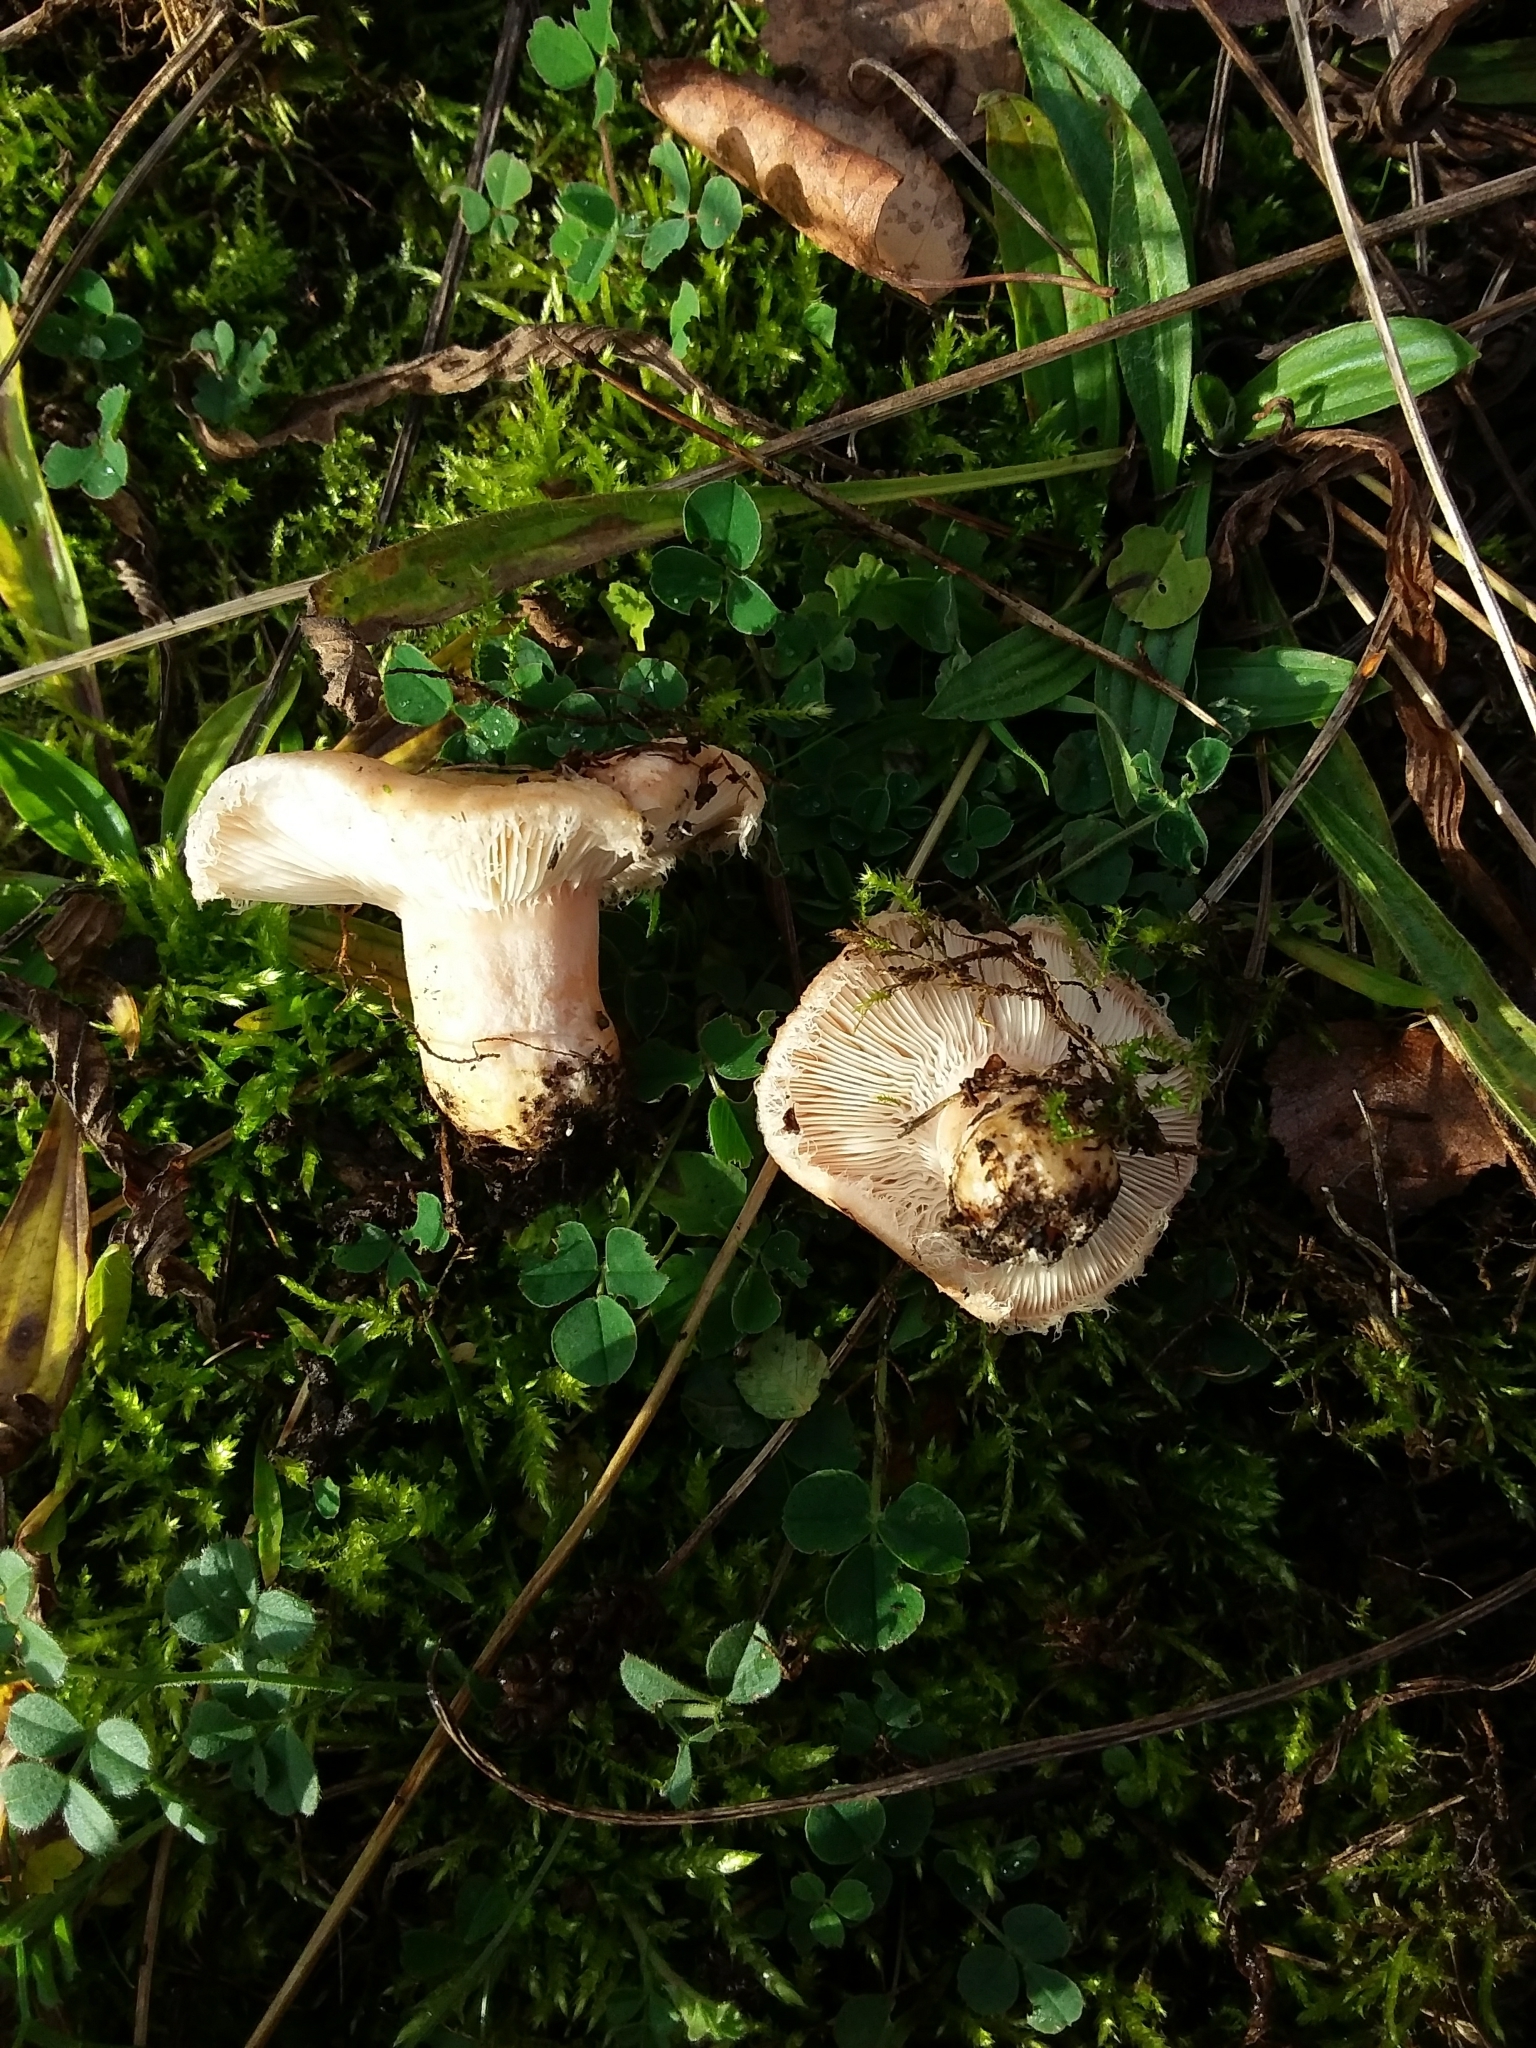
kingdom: Fungi
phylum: Basidiomycota
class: Agaricomycetes
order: Russulales
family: Russulaceae
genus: Lactarius
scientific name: Lactarius pubescens
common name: Bearded milkcap
